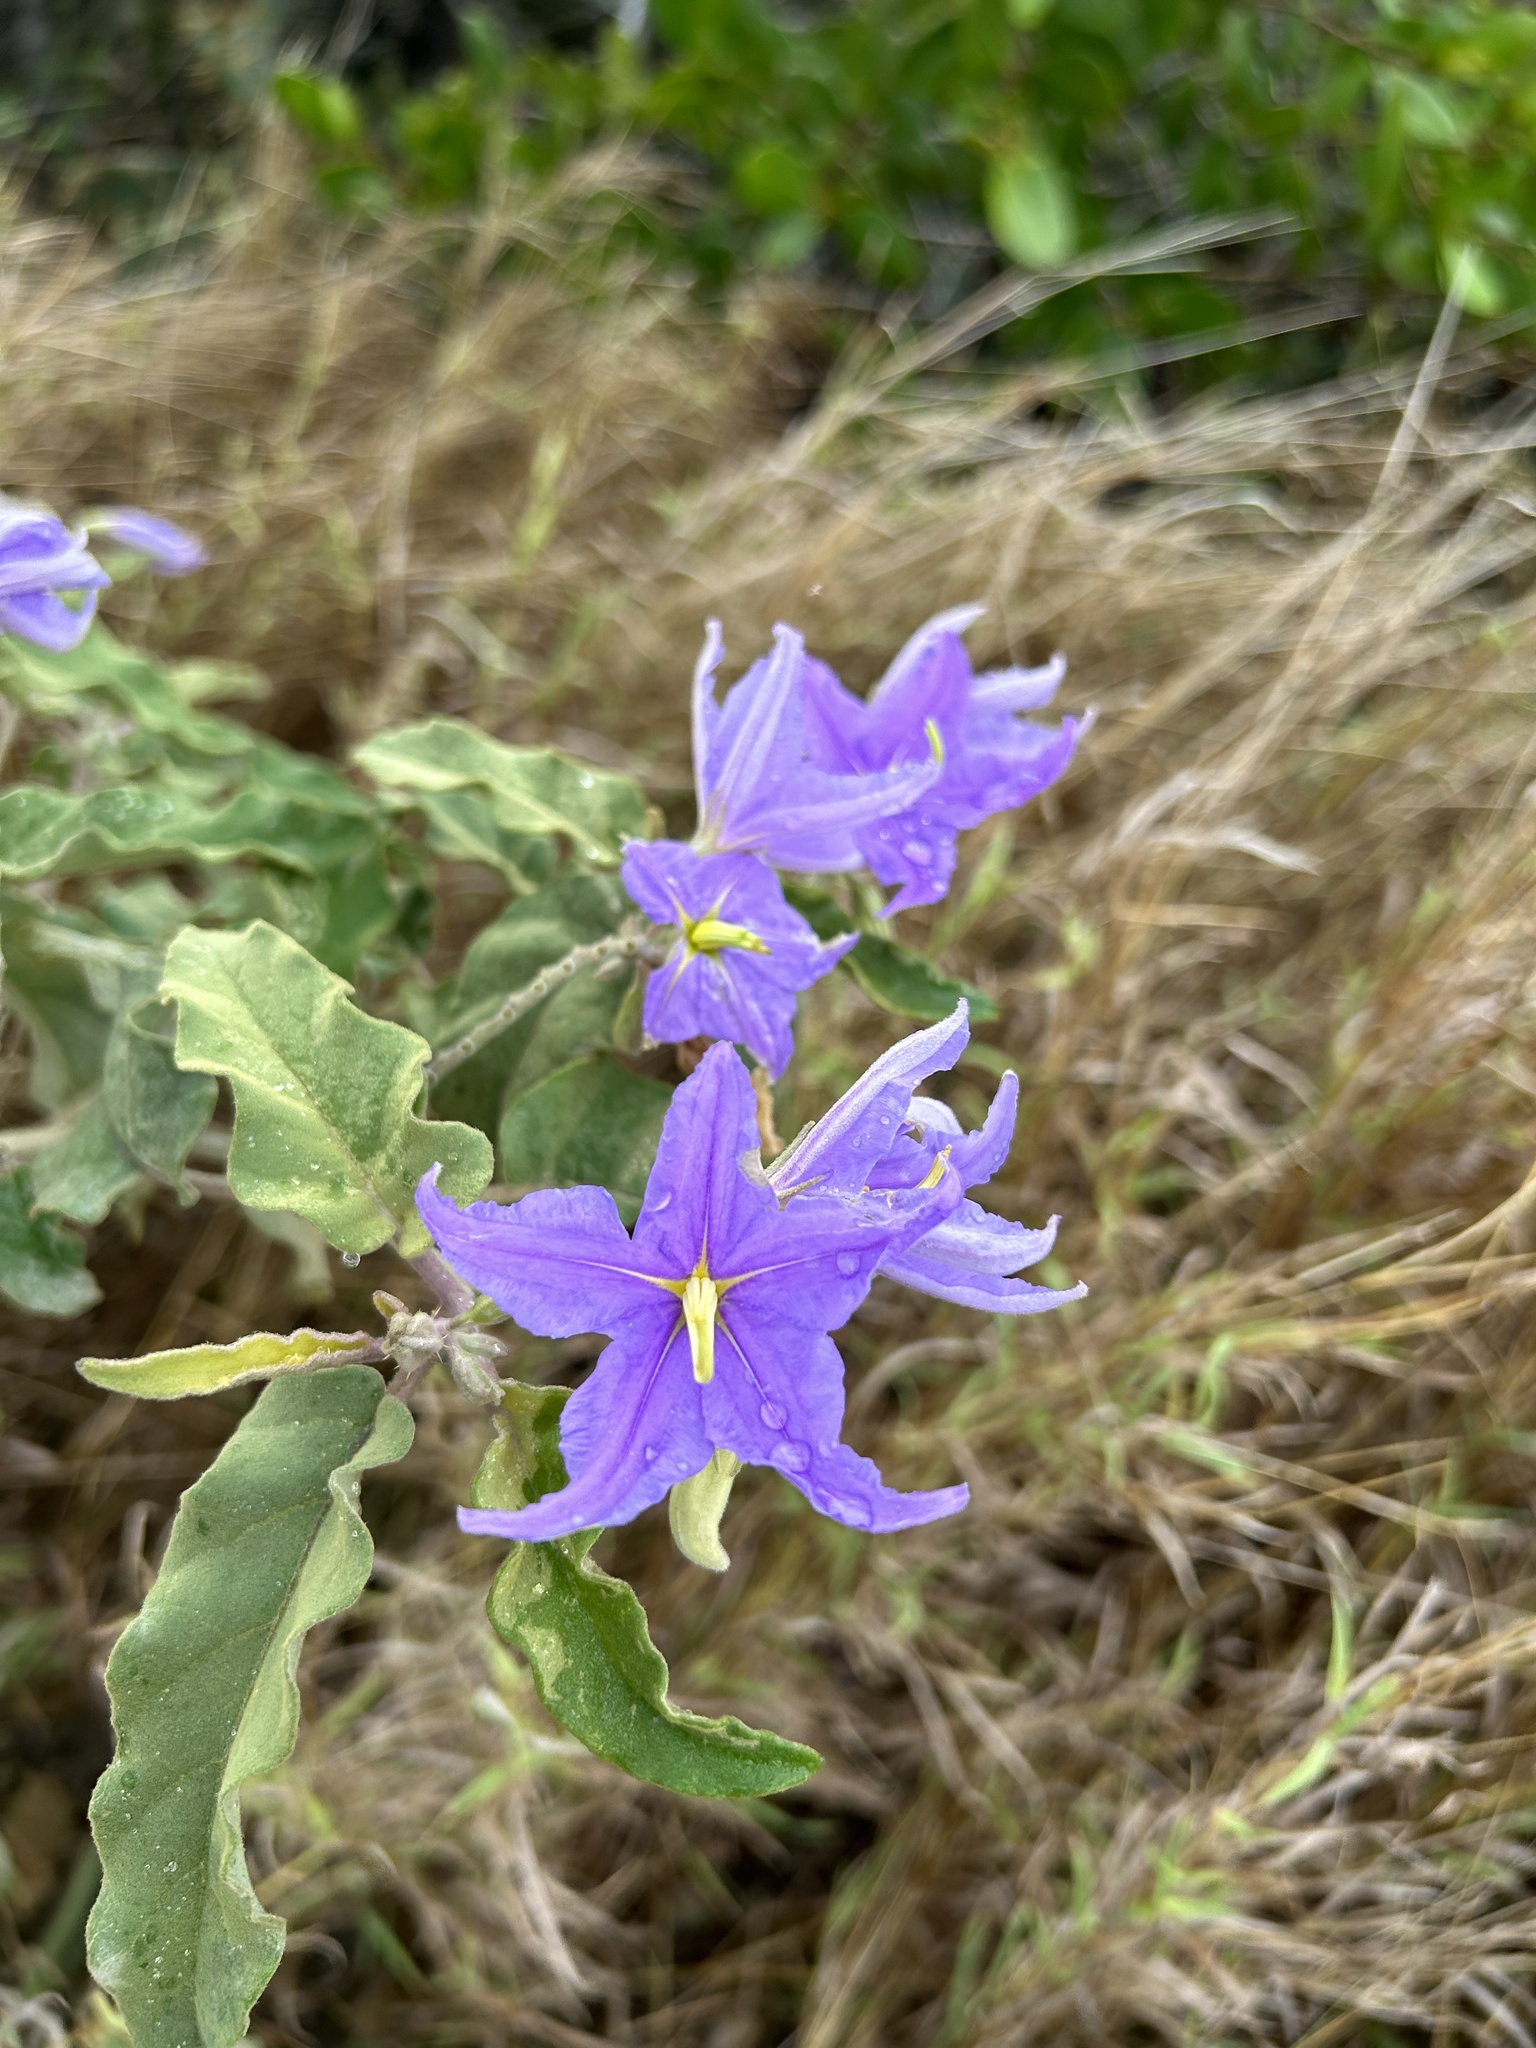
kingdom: Plantae
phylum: Tracheophyta
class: Magnoliopsida
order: Solanales
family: Solanaceae
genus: Solanum
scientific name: Solanum houstonii
